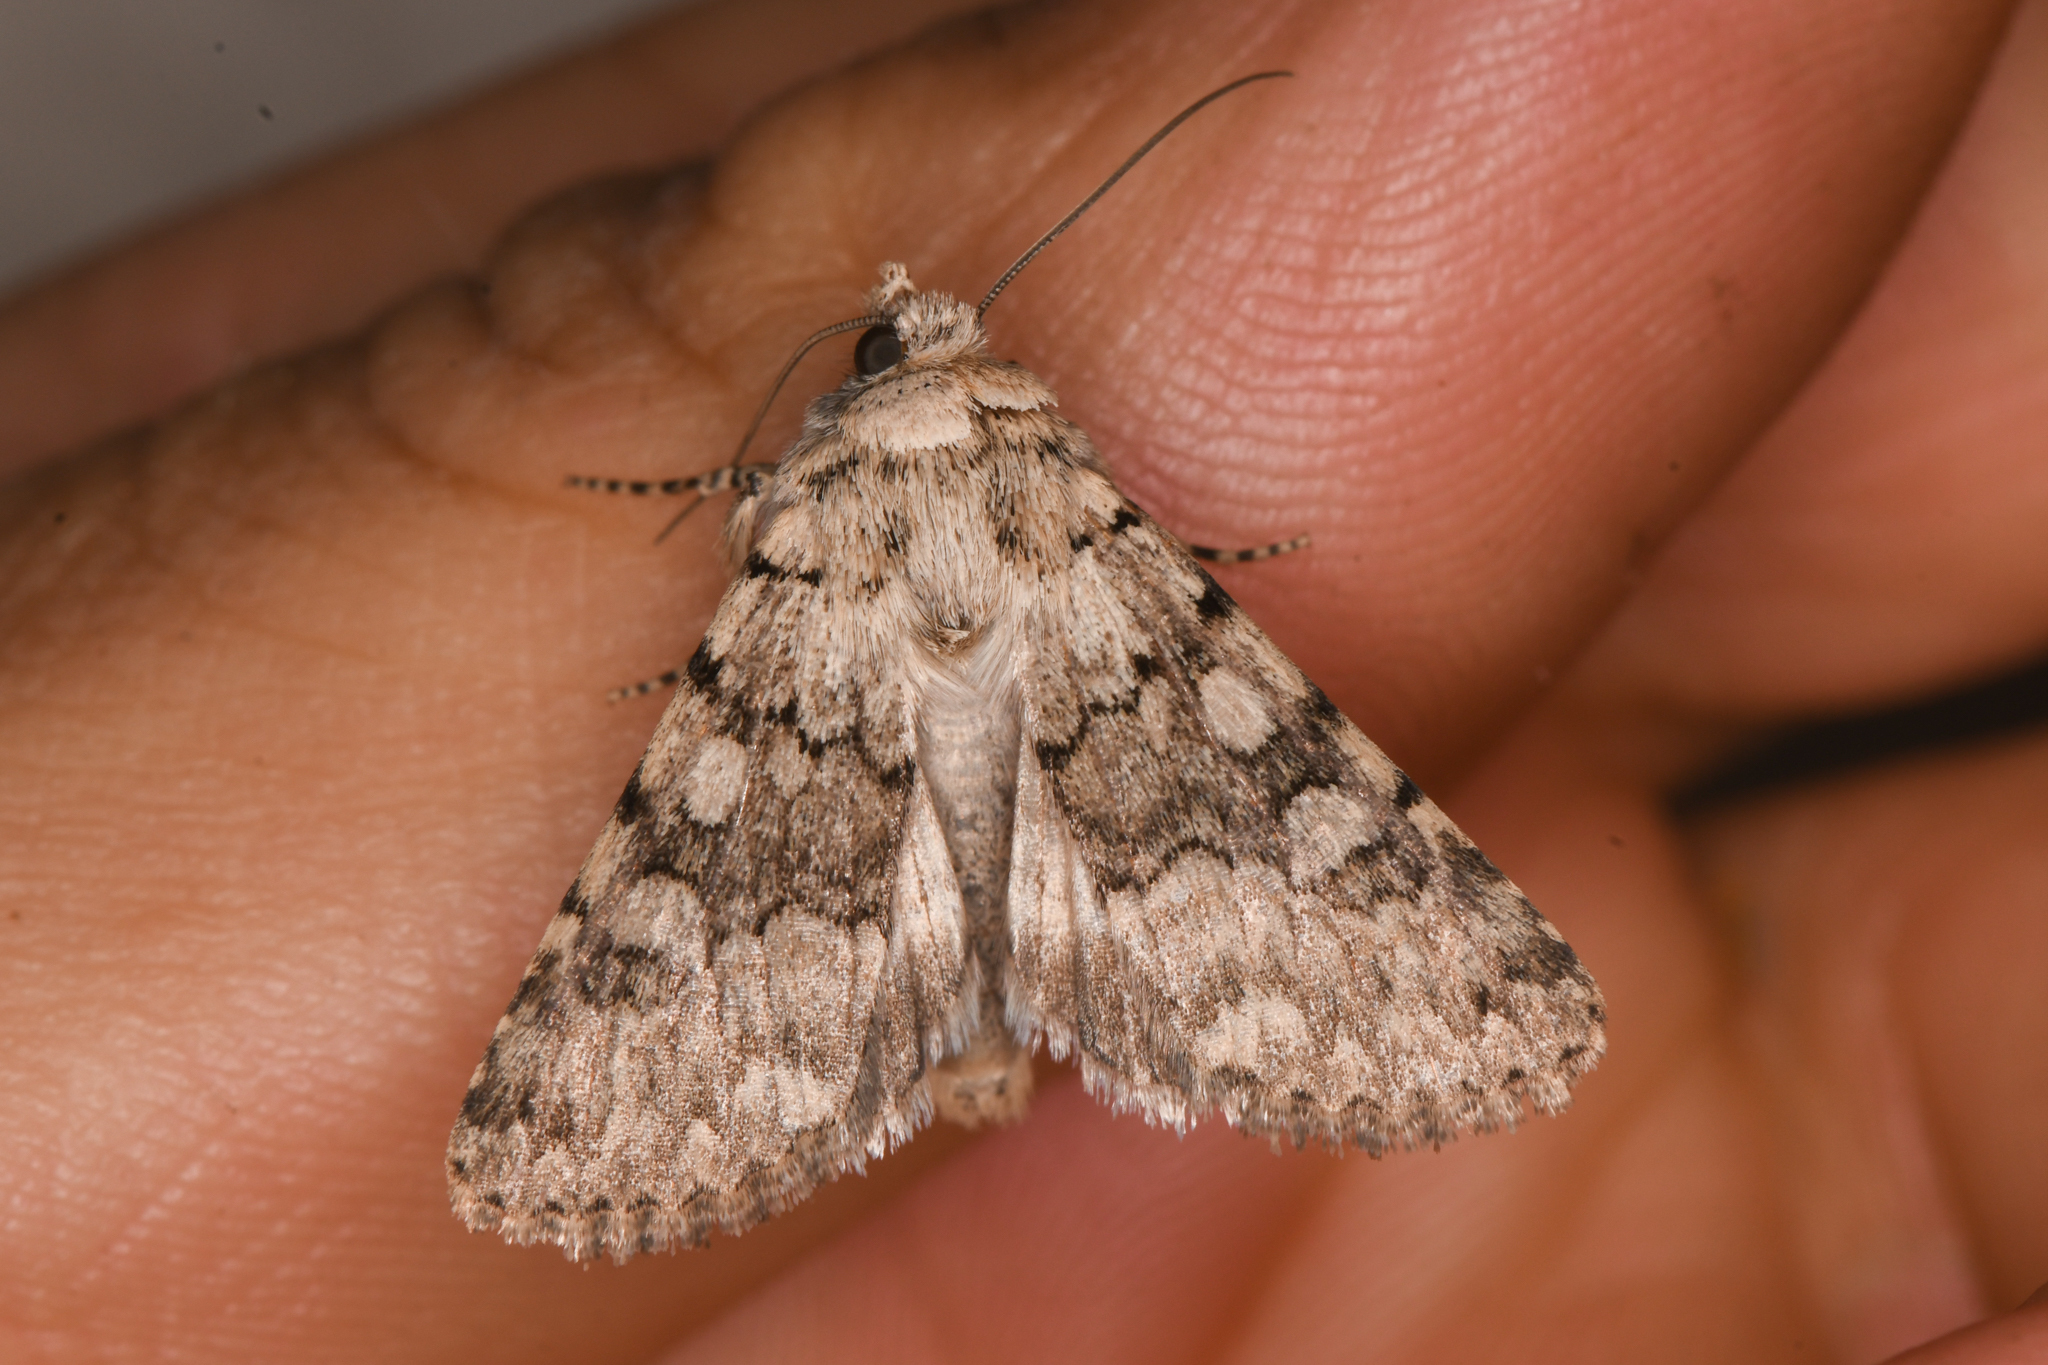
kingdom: Animalia
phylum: Arthropoda
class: Insecta
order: Lepidoptera
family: Noctuidae
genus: Sympistis
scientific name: Sympistis acheron
